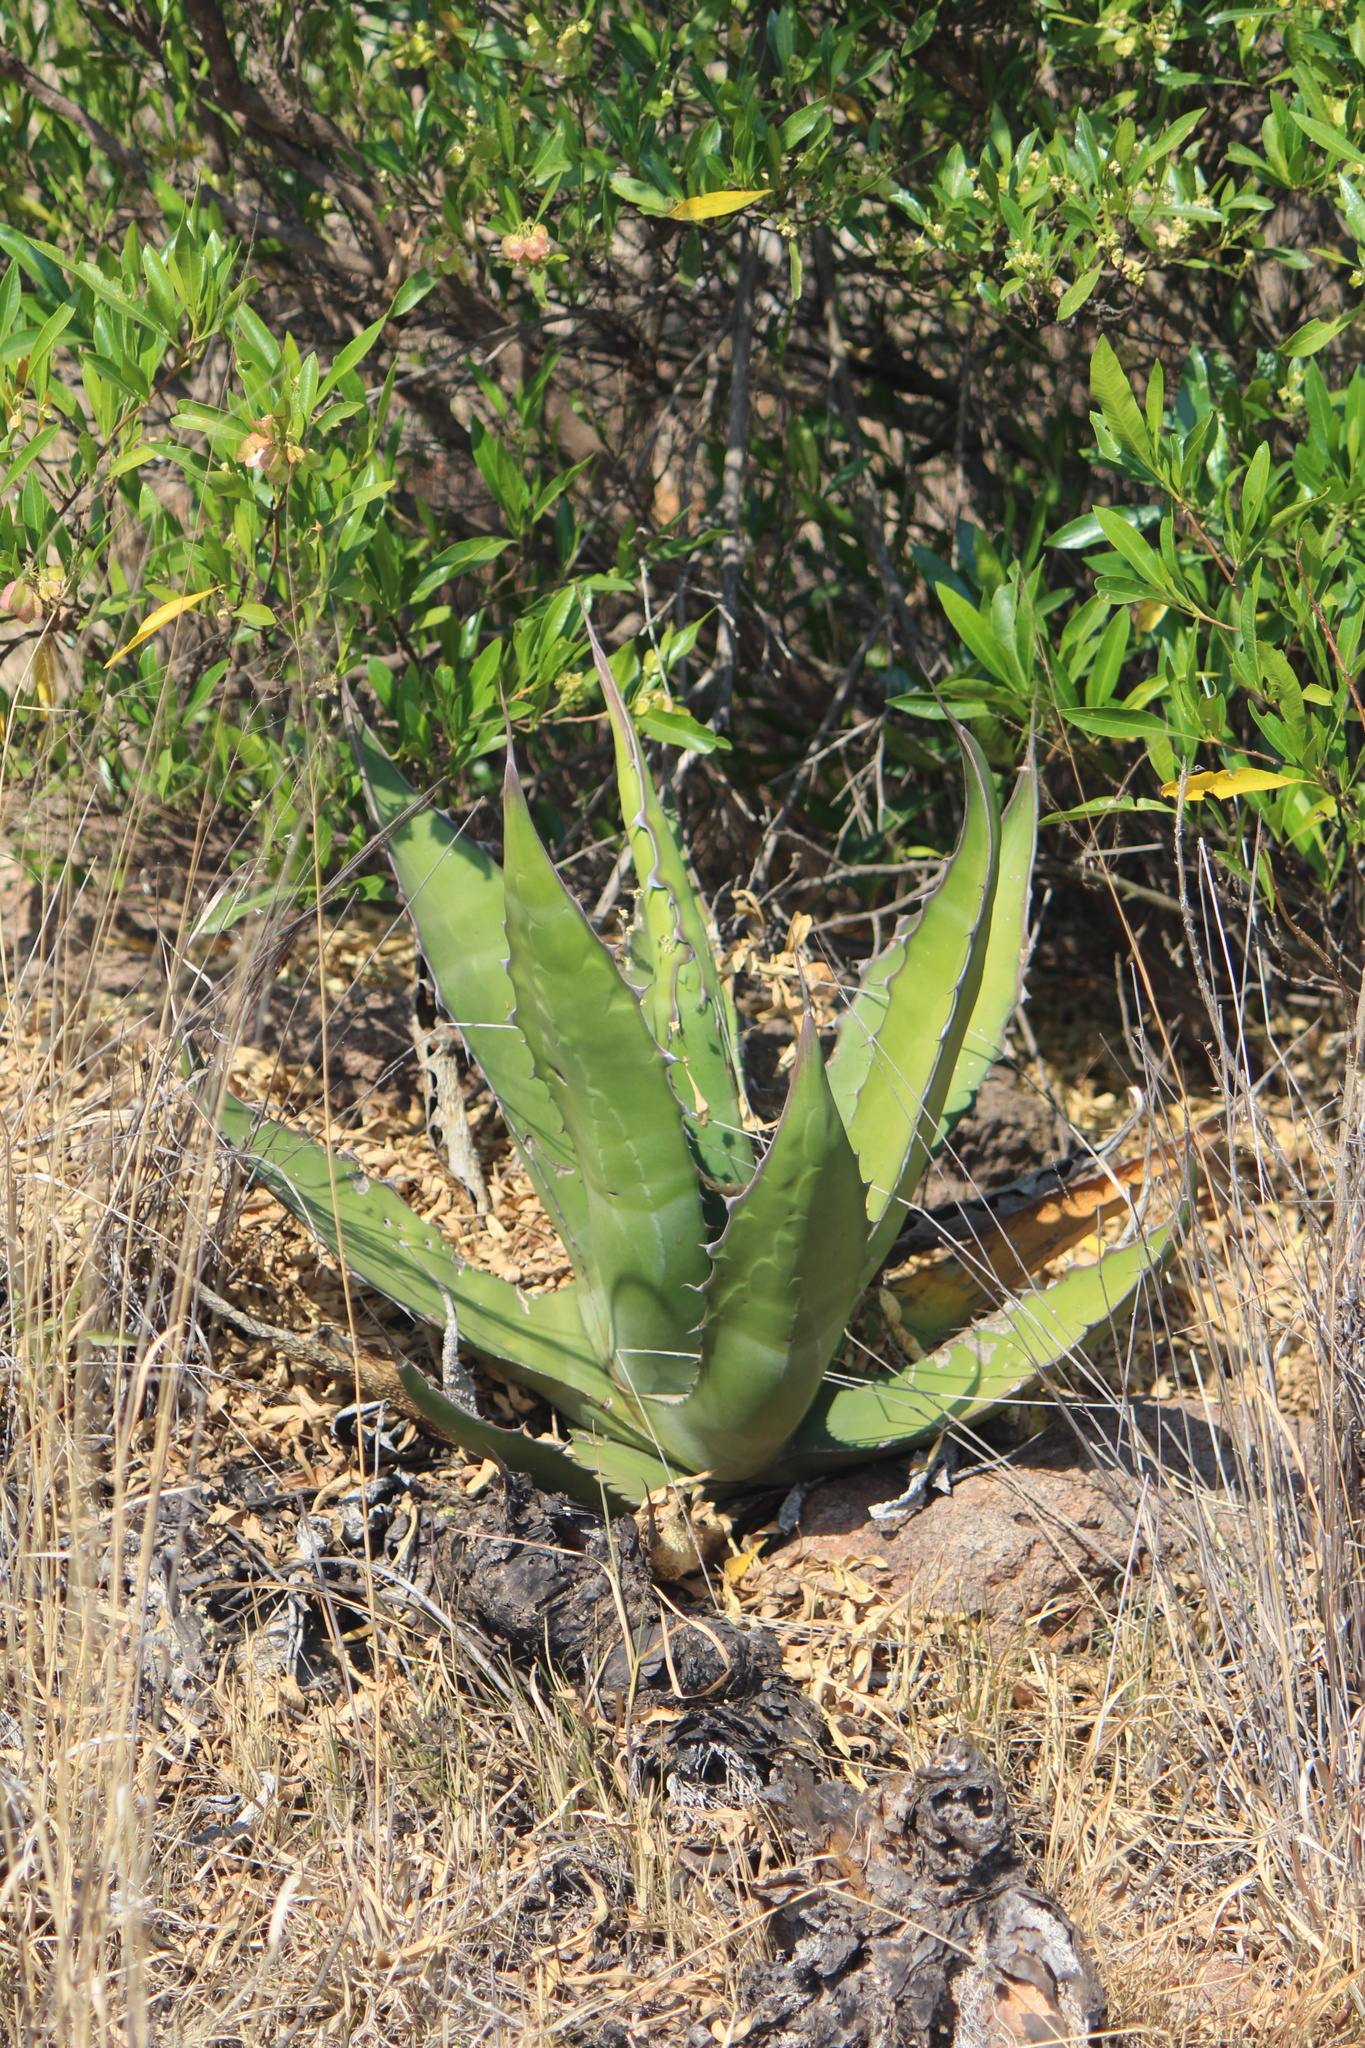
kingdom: Plantae
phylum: Tracheophyta
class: Liliopsida
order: Asparagales
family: Asparagaceae
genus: Agave
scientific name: Agave salmiana
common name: Pulque agave
